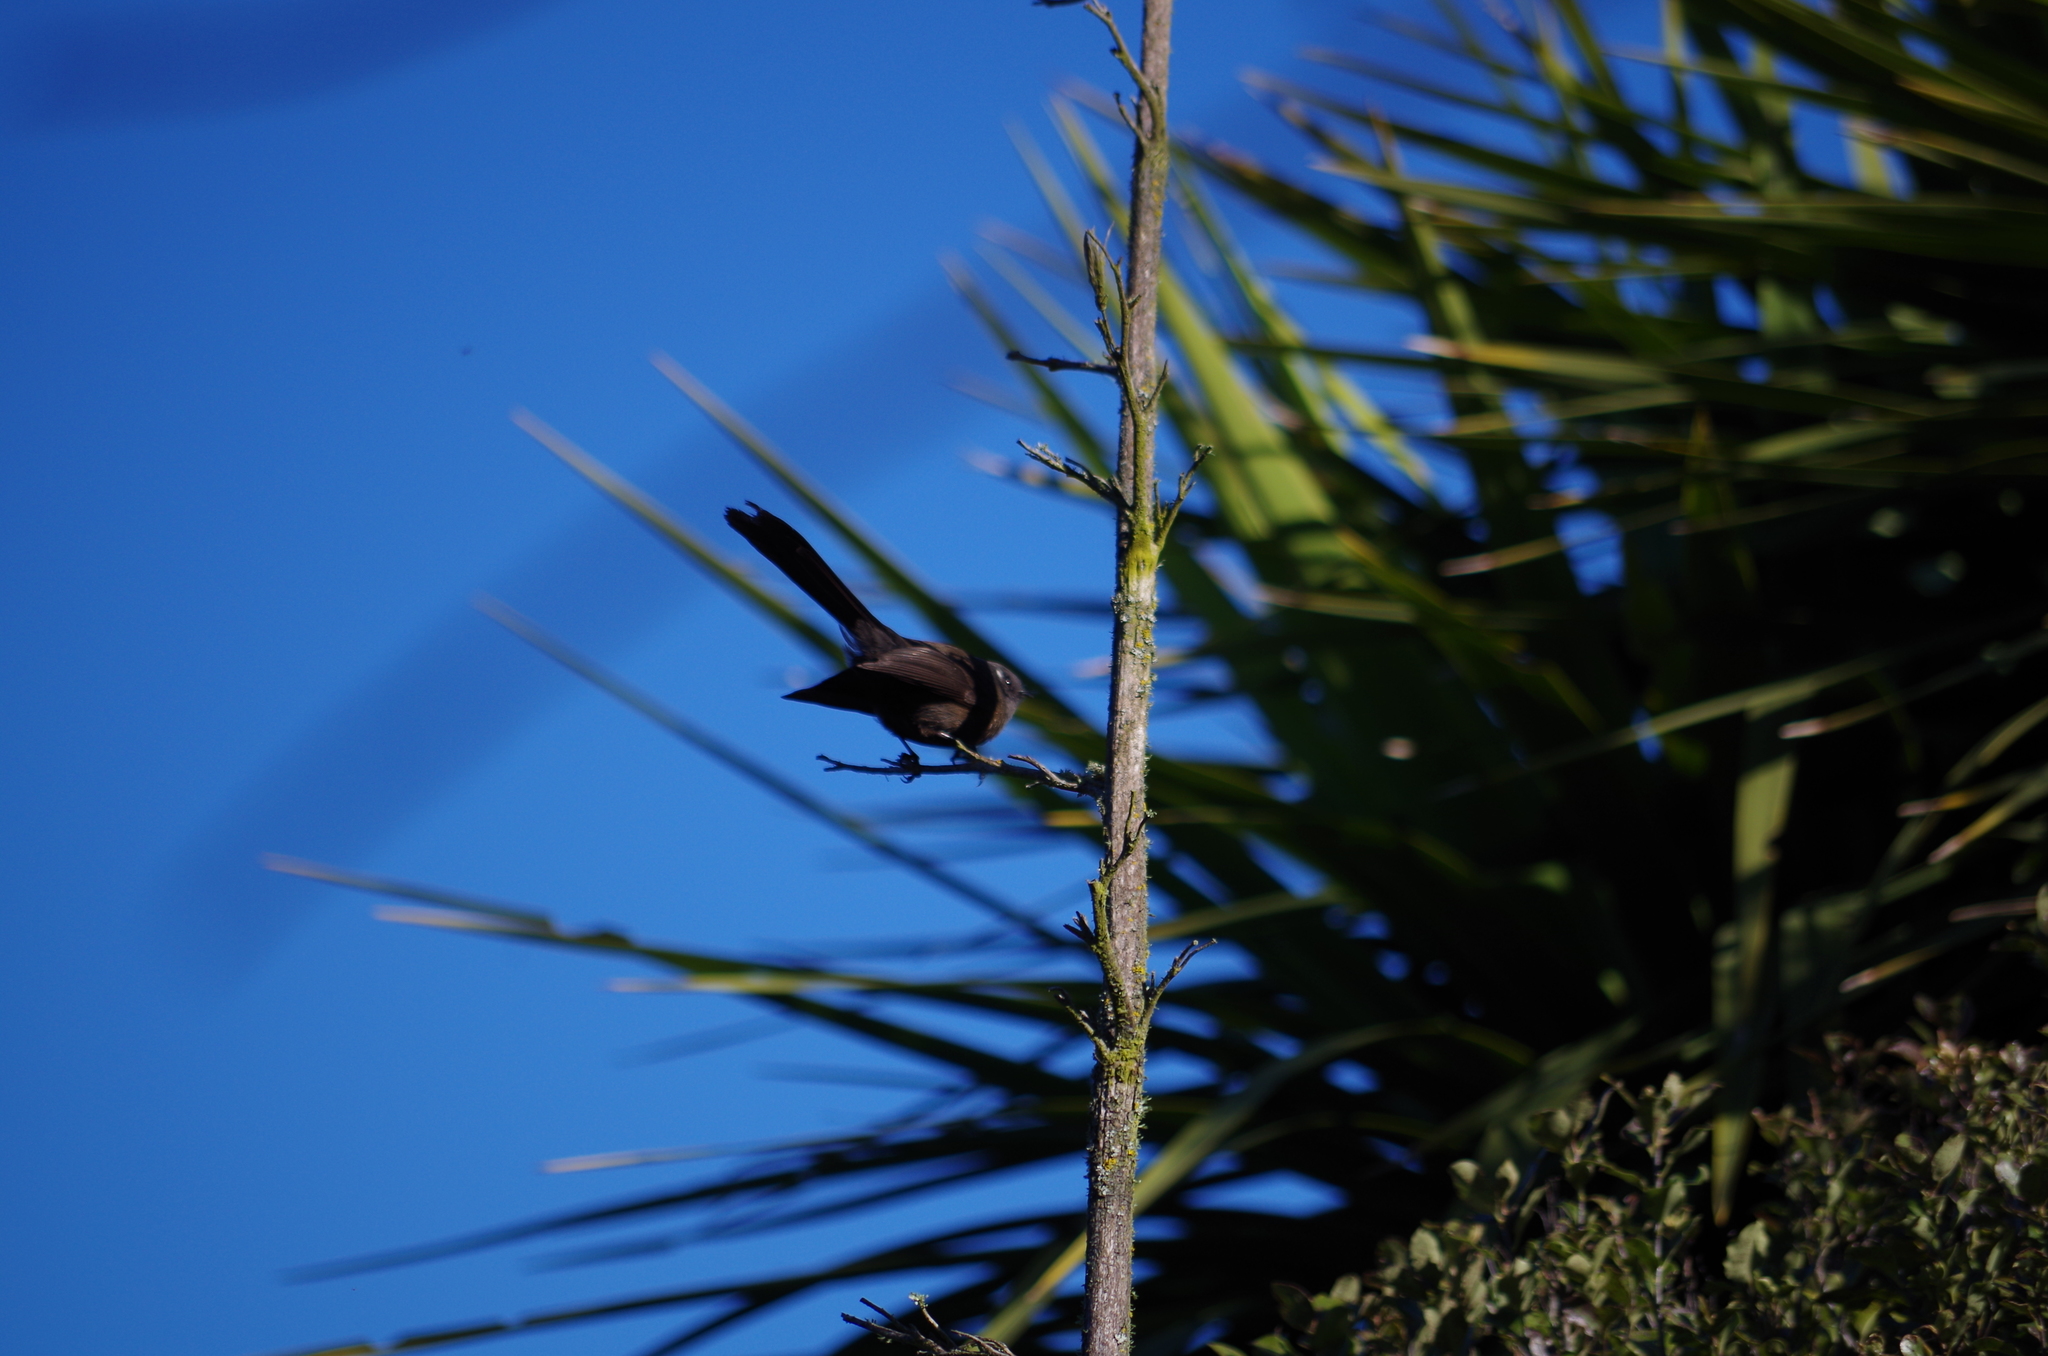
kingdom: Animalia
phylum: Chordata
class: Aves
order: Passeriformes
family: Rhipiduridae
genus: Rhipidura
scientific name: Rhipidura fuliginosa
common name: New zealand fantail
